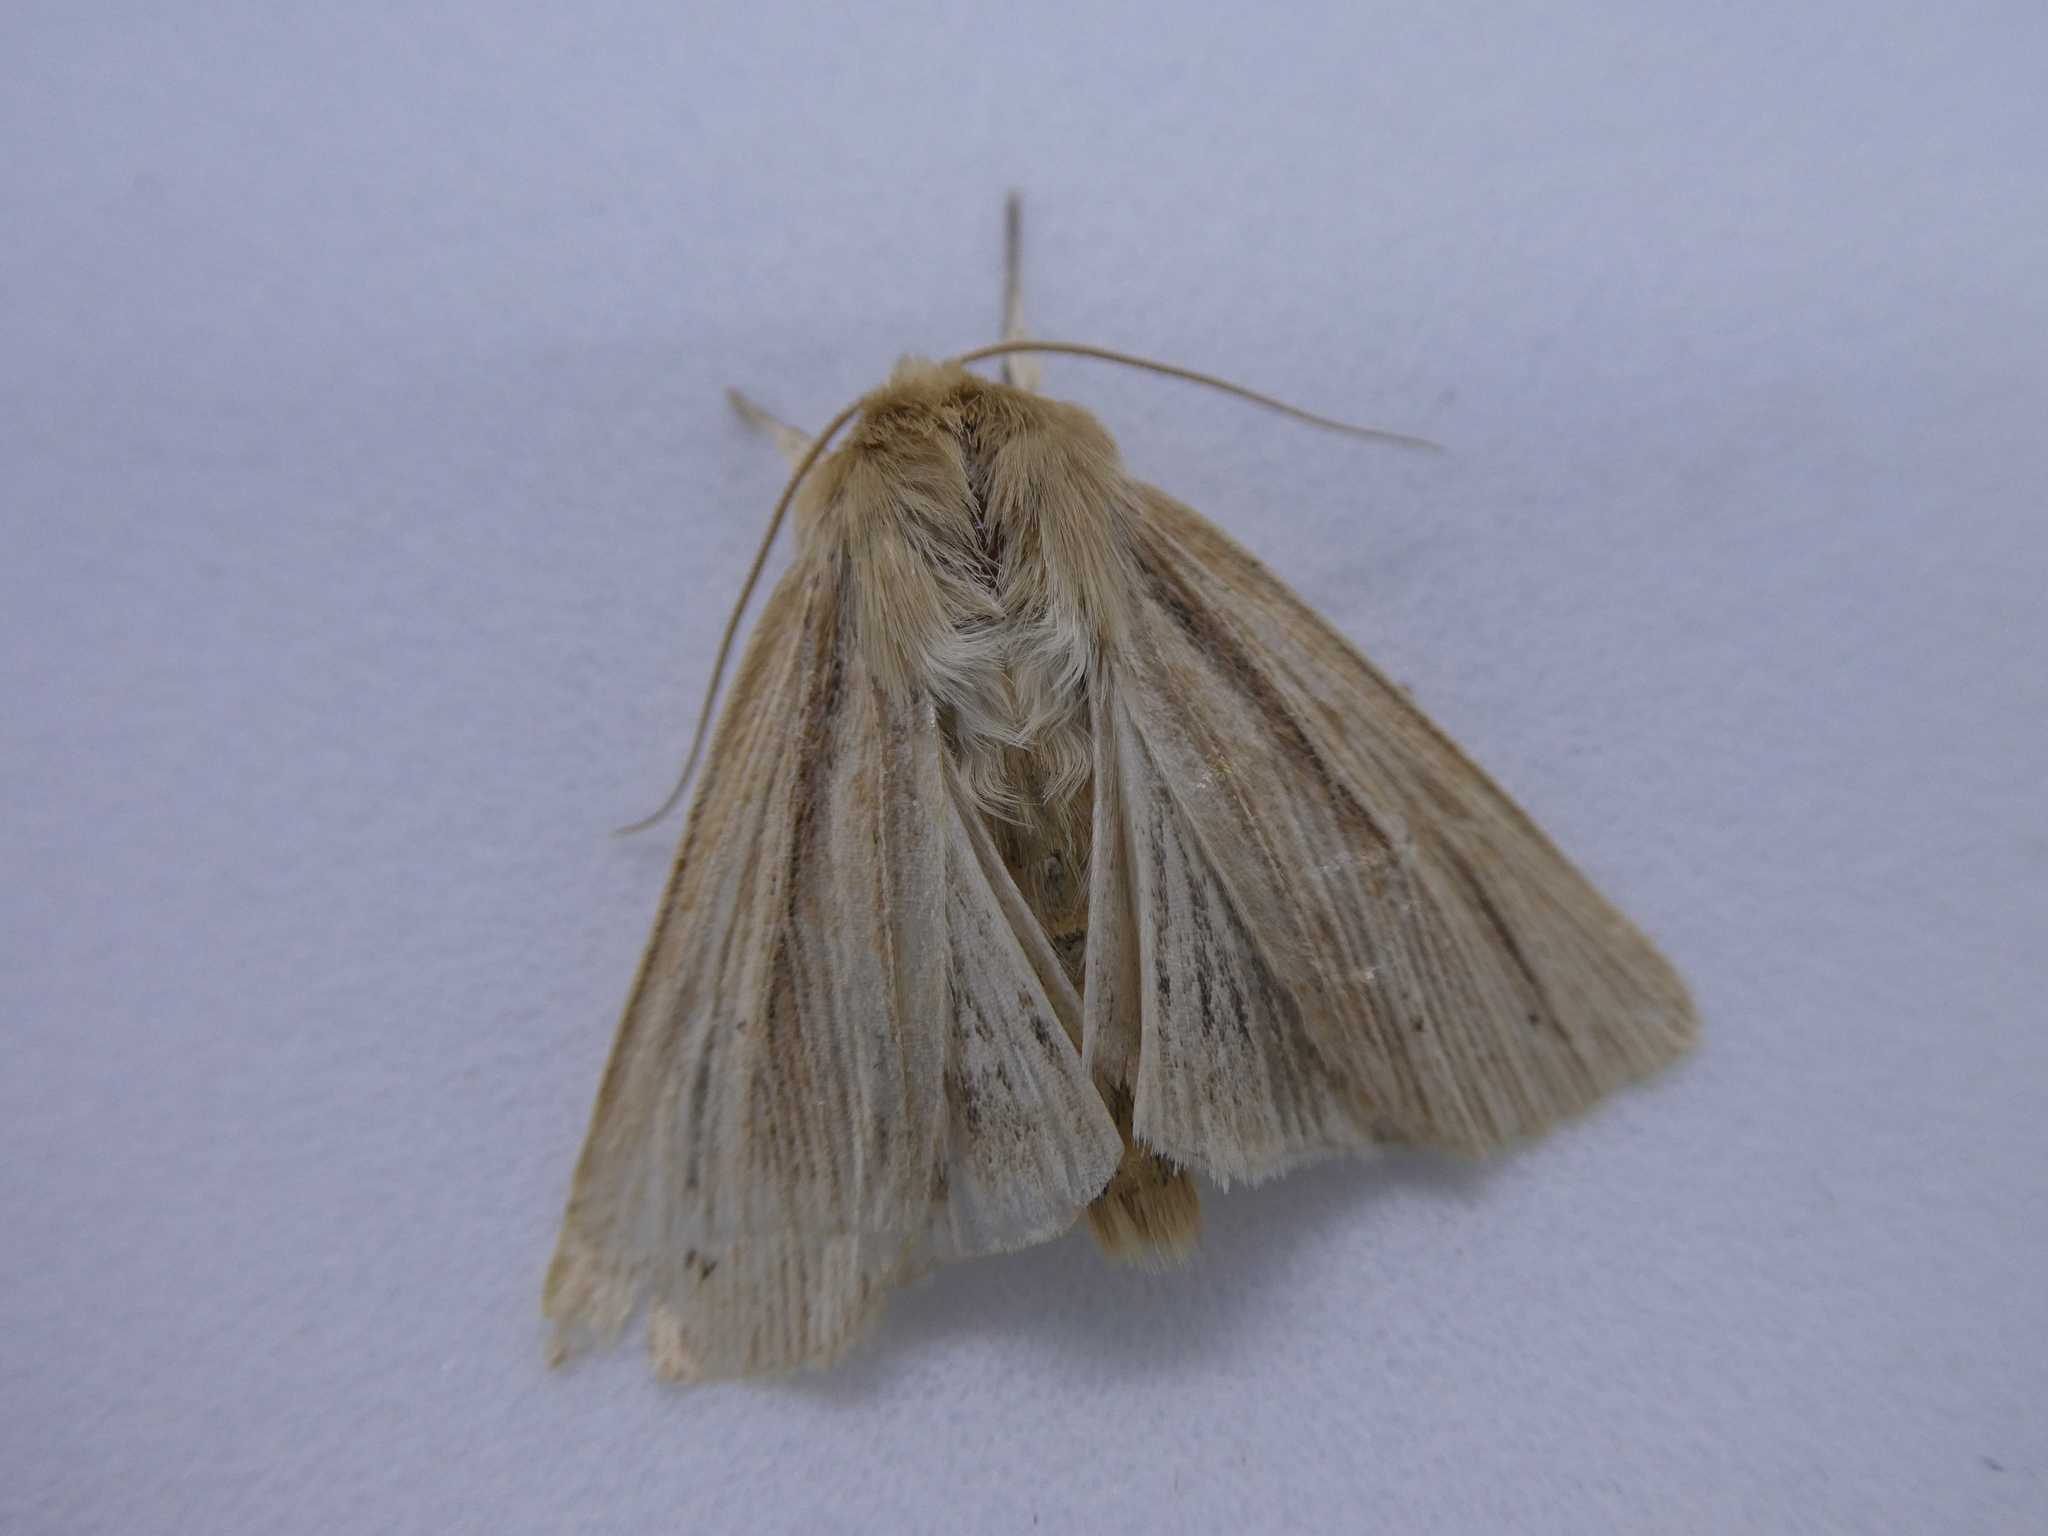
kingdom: Animalia
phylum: Arthropoda
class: Insecta
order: Lepidoptera
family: Noctuidae
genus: Mythimna
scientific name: Mythimna oxygala
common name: Lesser wainscot
